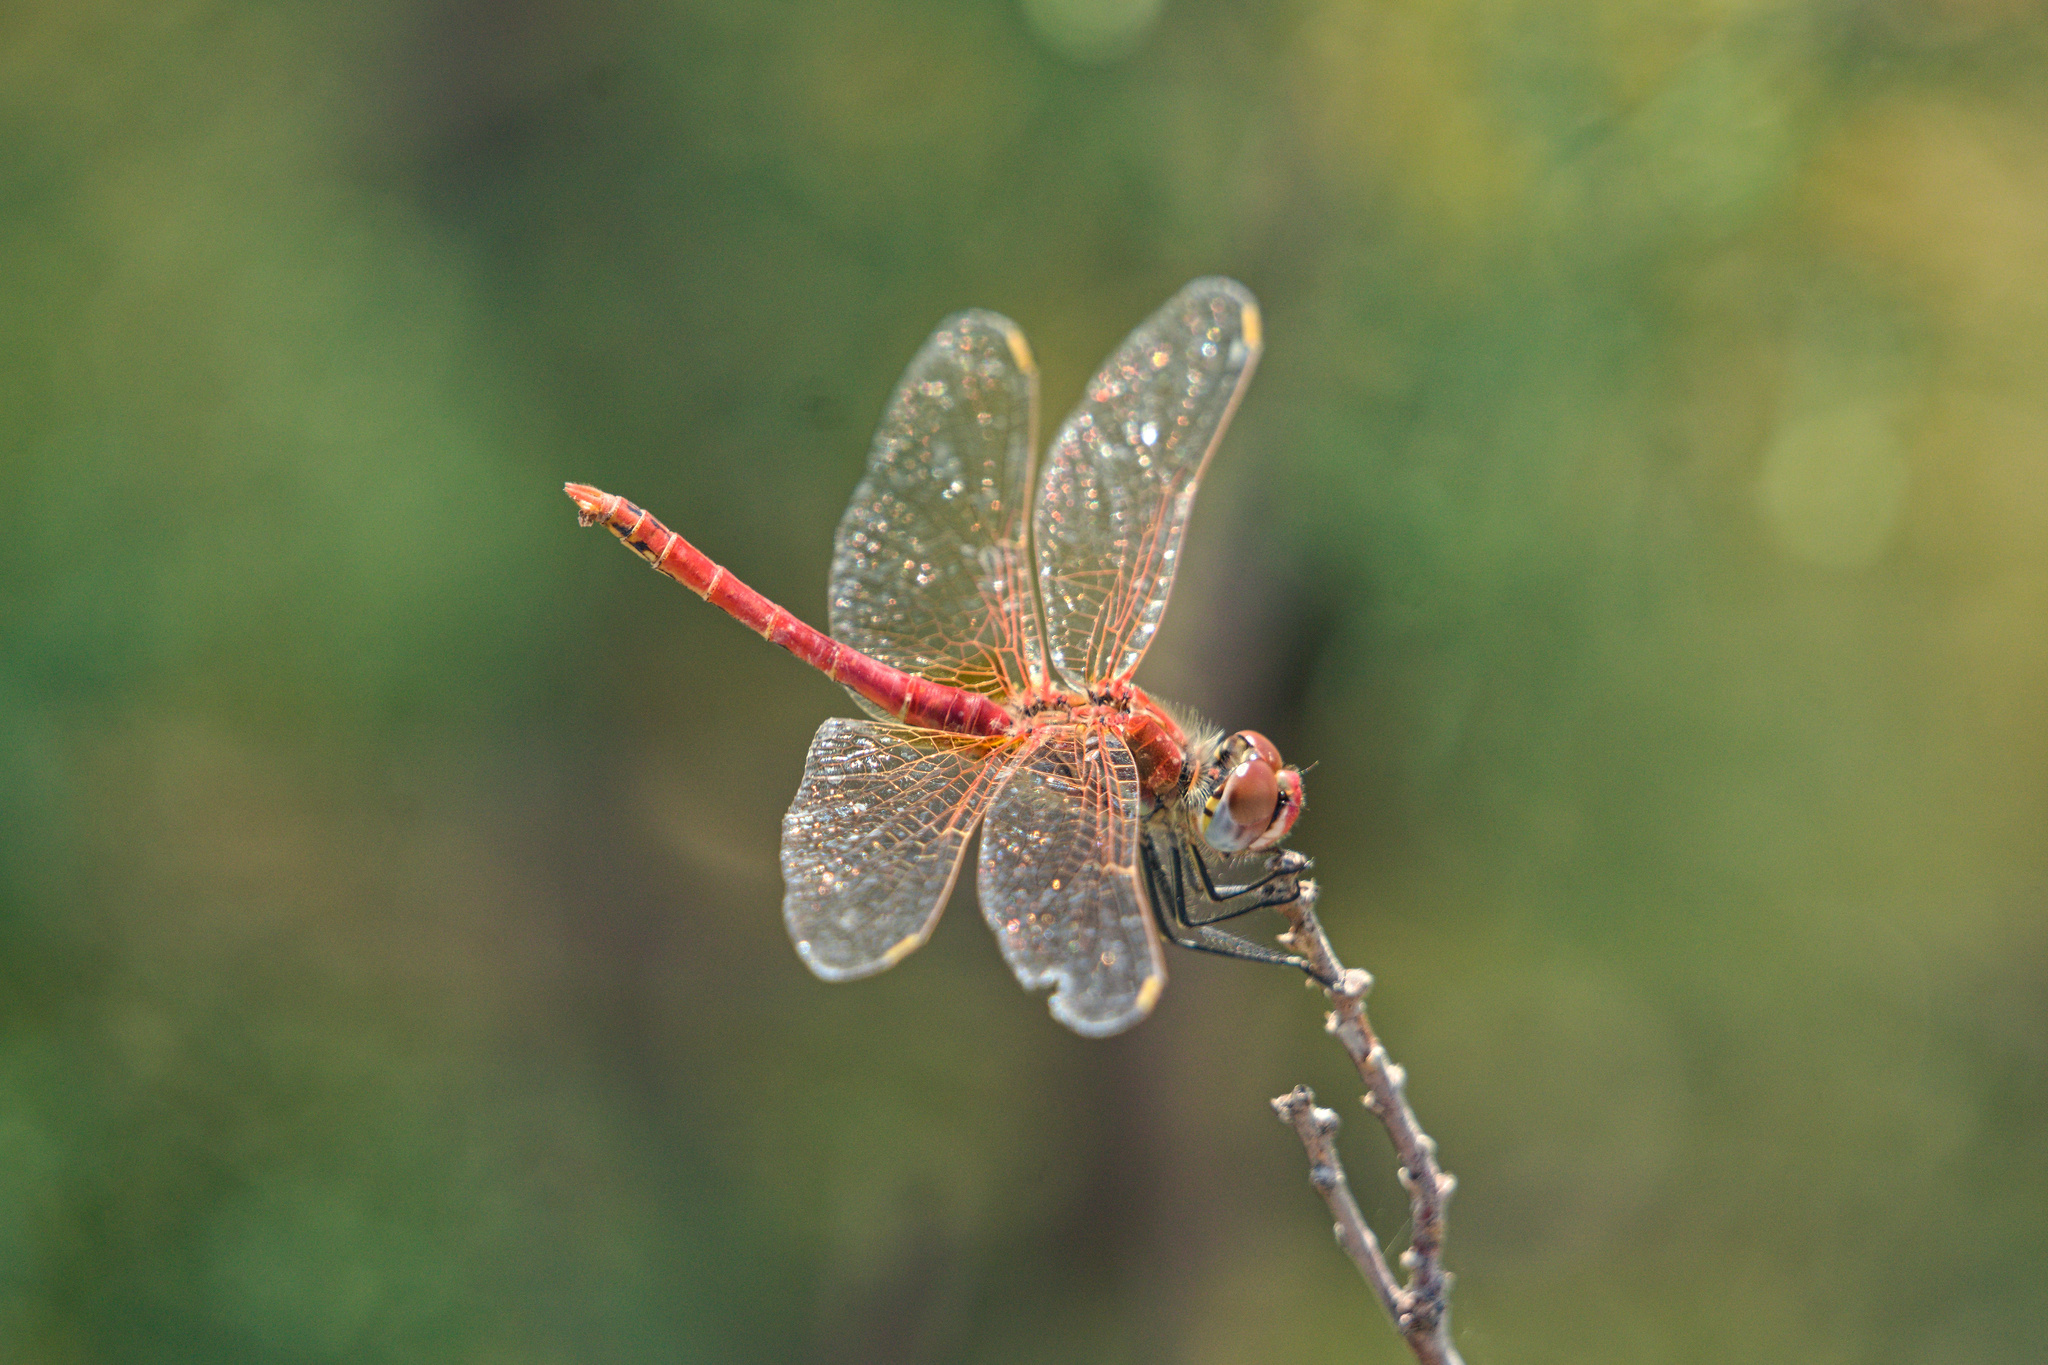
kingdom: Animalia
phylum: Arthropoda
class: Insecta
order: Odonata
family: Libellulidae
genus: Sympetrum
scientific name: Sympetrum fonscolombii
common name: Red-veined darter
